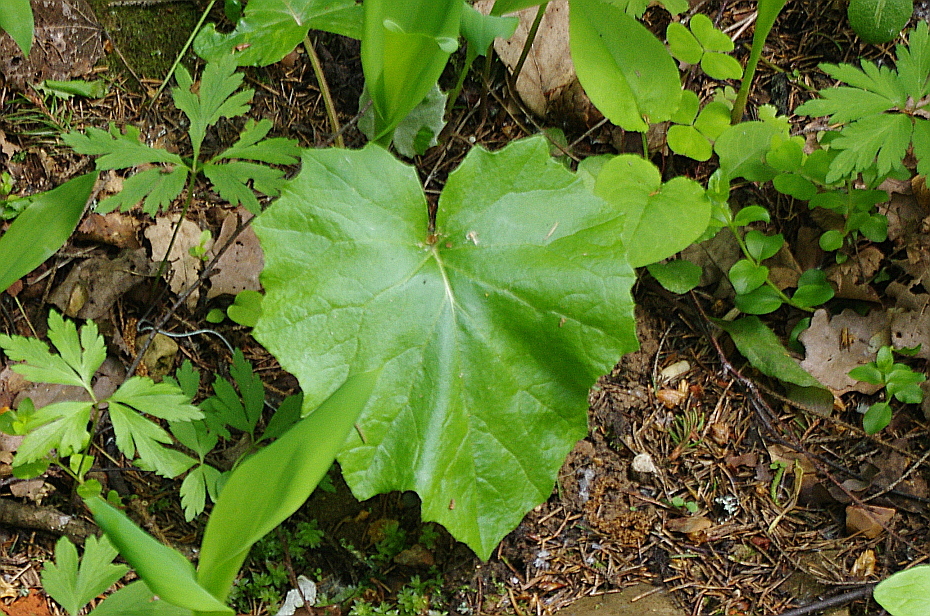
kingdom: Plantae
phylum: Tracheophyta
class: Magnoliopsida
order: Asterales
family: Asteraceae
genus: Tussilago
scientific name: Tussilago farfara
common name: Coltsfoot
